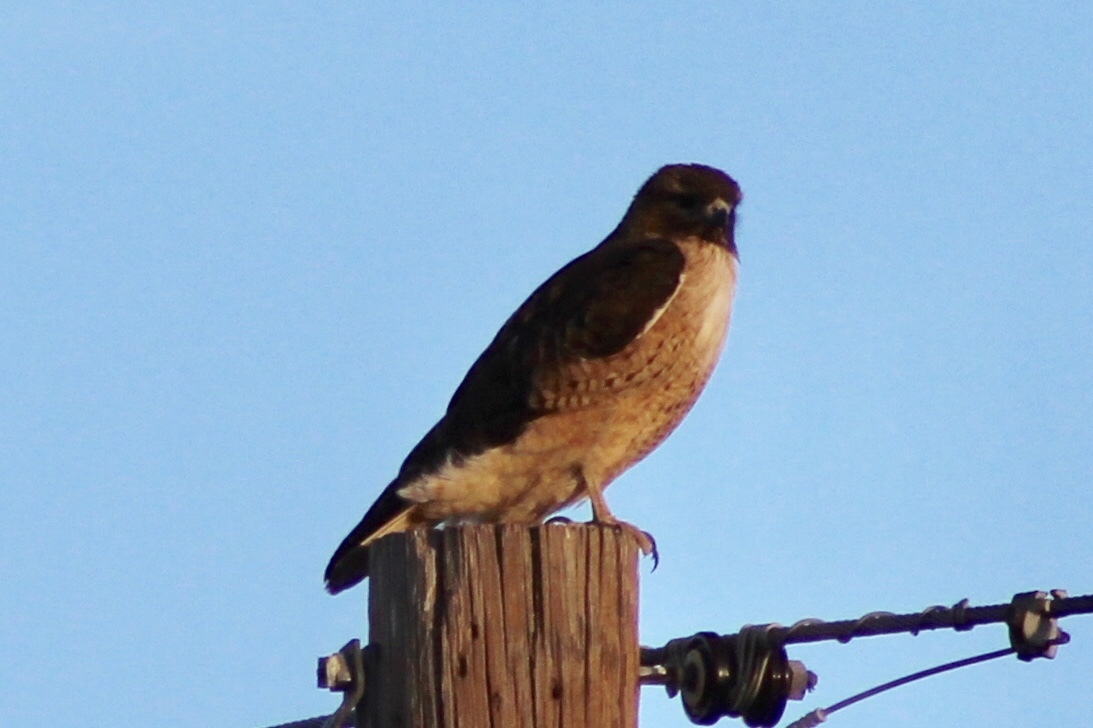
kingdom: Animalia
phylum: Chordata
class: Aves
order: Accipitriformes
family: Accipitridae
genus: Buteo
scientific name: Buteo jamaicensis
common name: Red-tailed hawk
